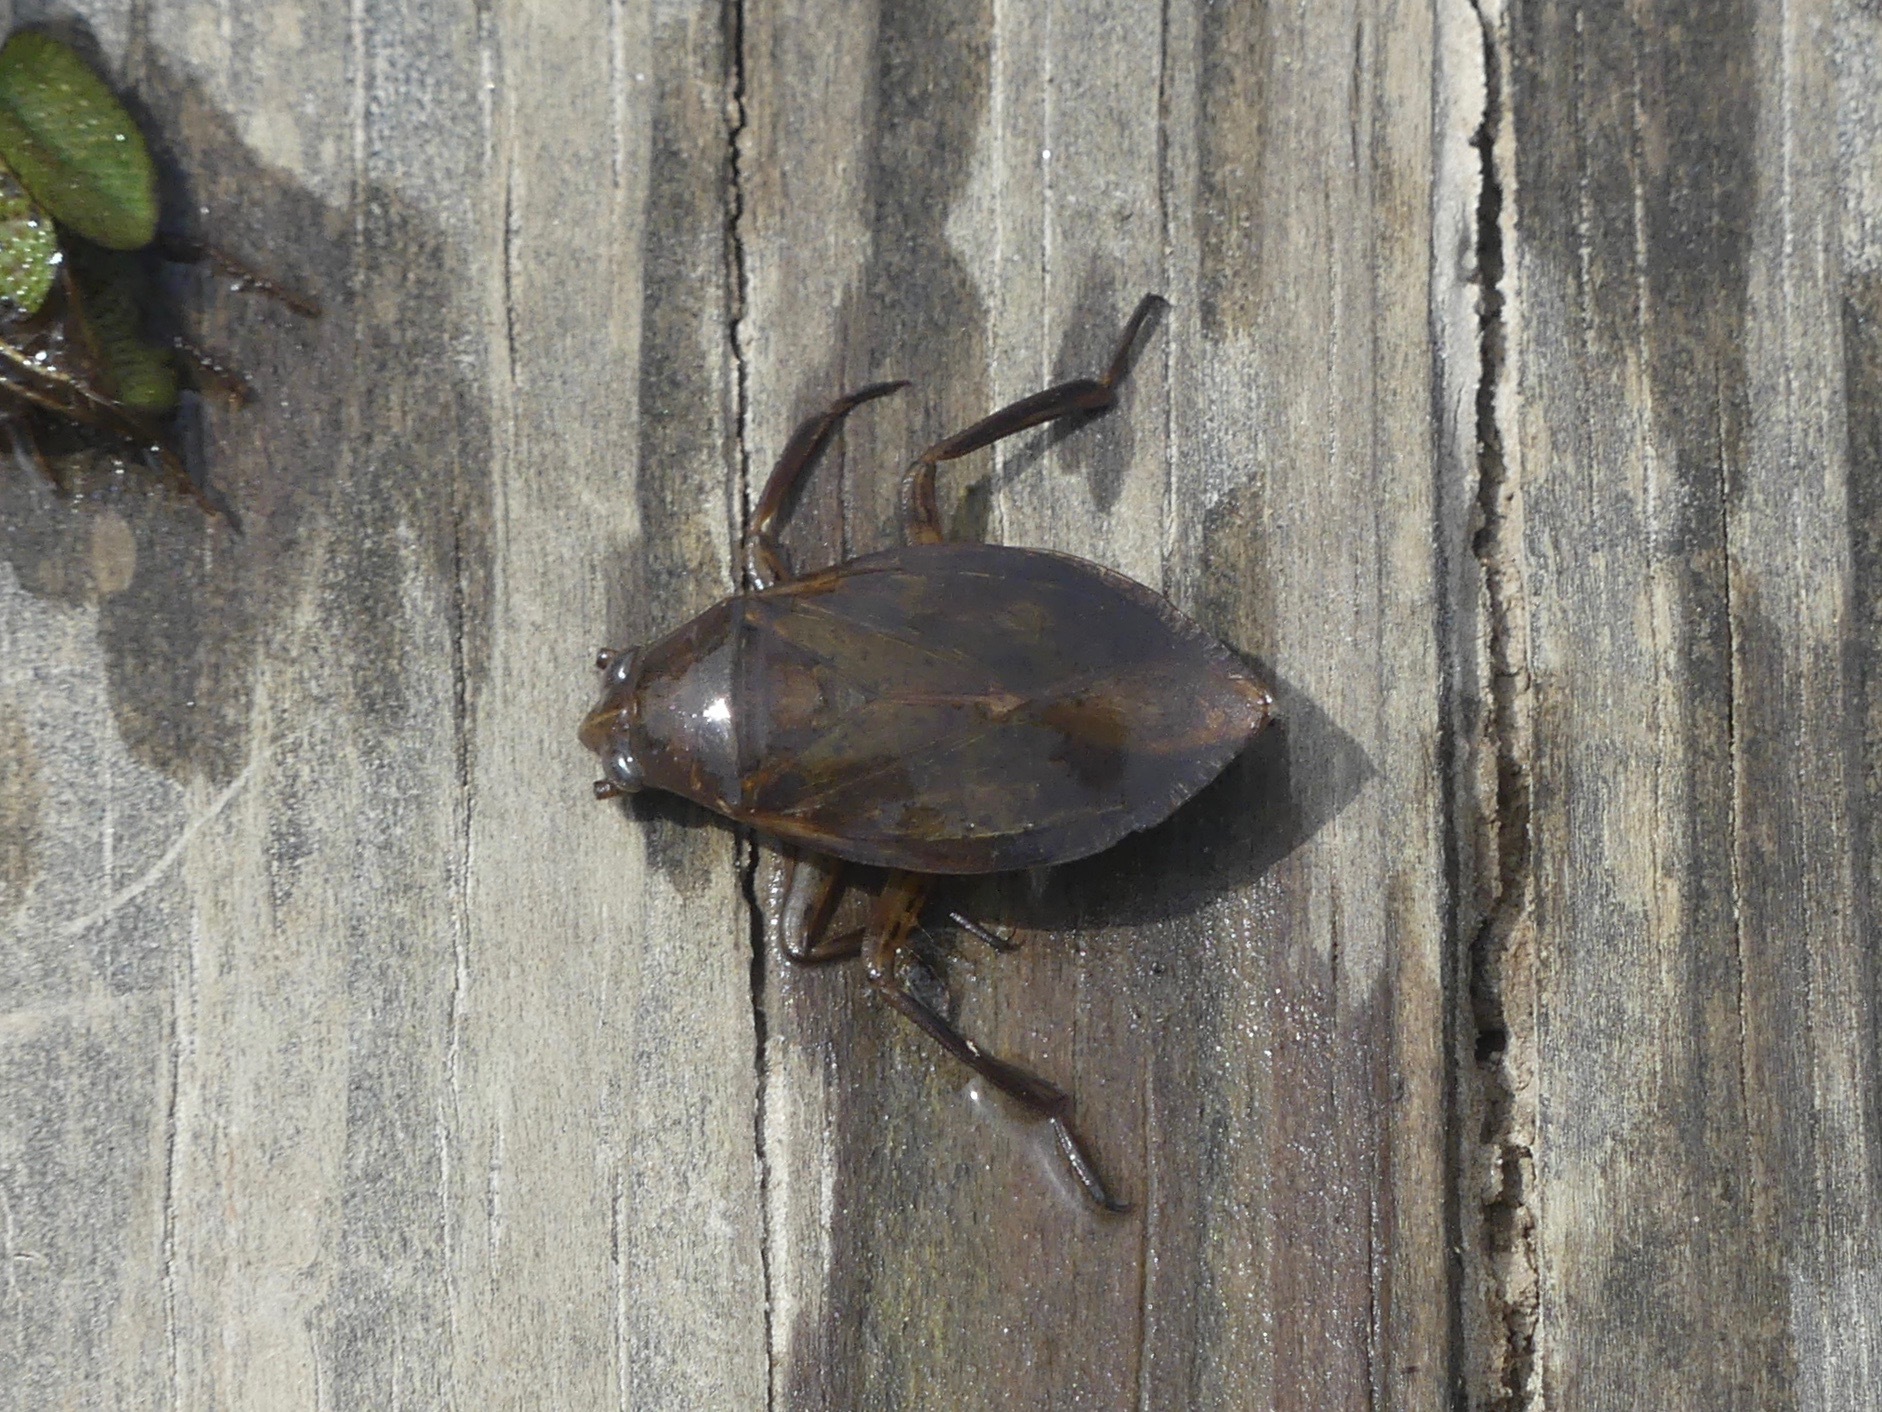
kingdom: Animalia
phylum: Arthropoda
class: Insecta
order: Hemiptera
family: Belostomatidae
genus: Belostoma
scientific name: Belostoma
